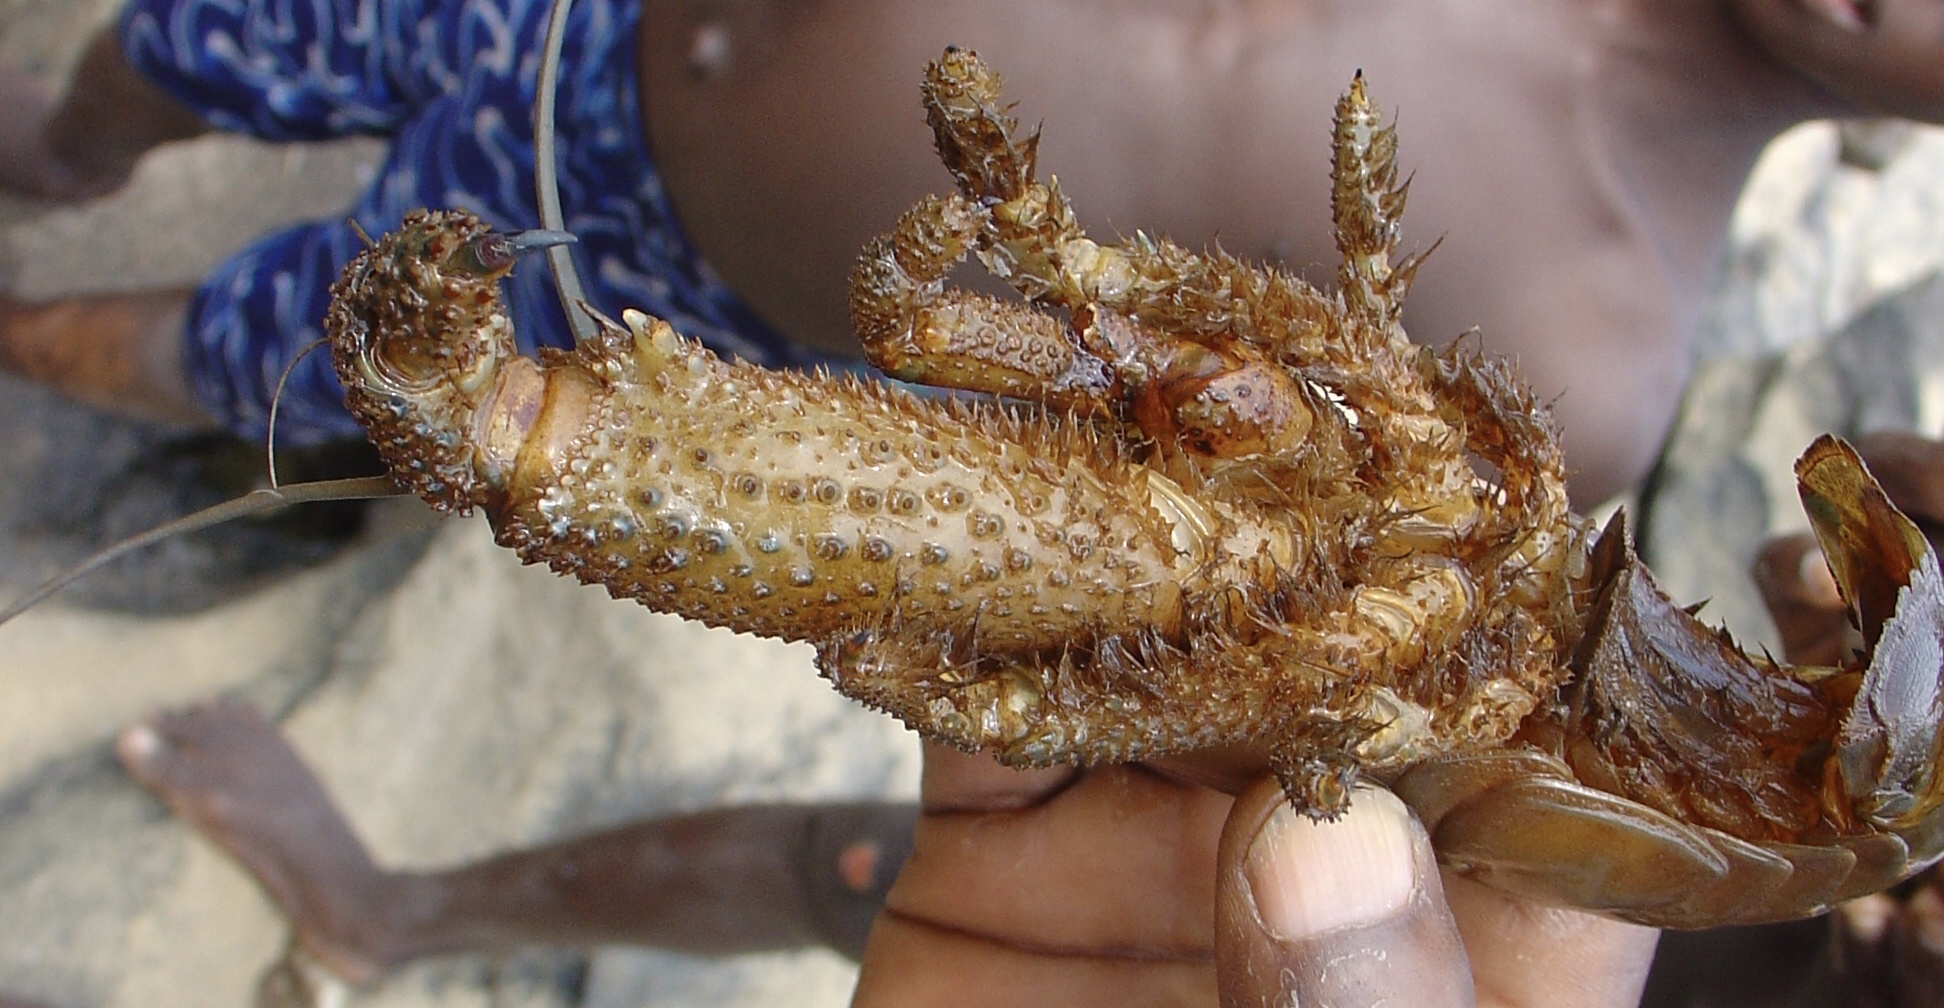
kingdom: Animalia
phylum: Arthropoda
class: Malacostraca
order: Decapoda
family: Atyidae
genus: Atya
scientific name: Atya gabonensis
